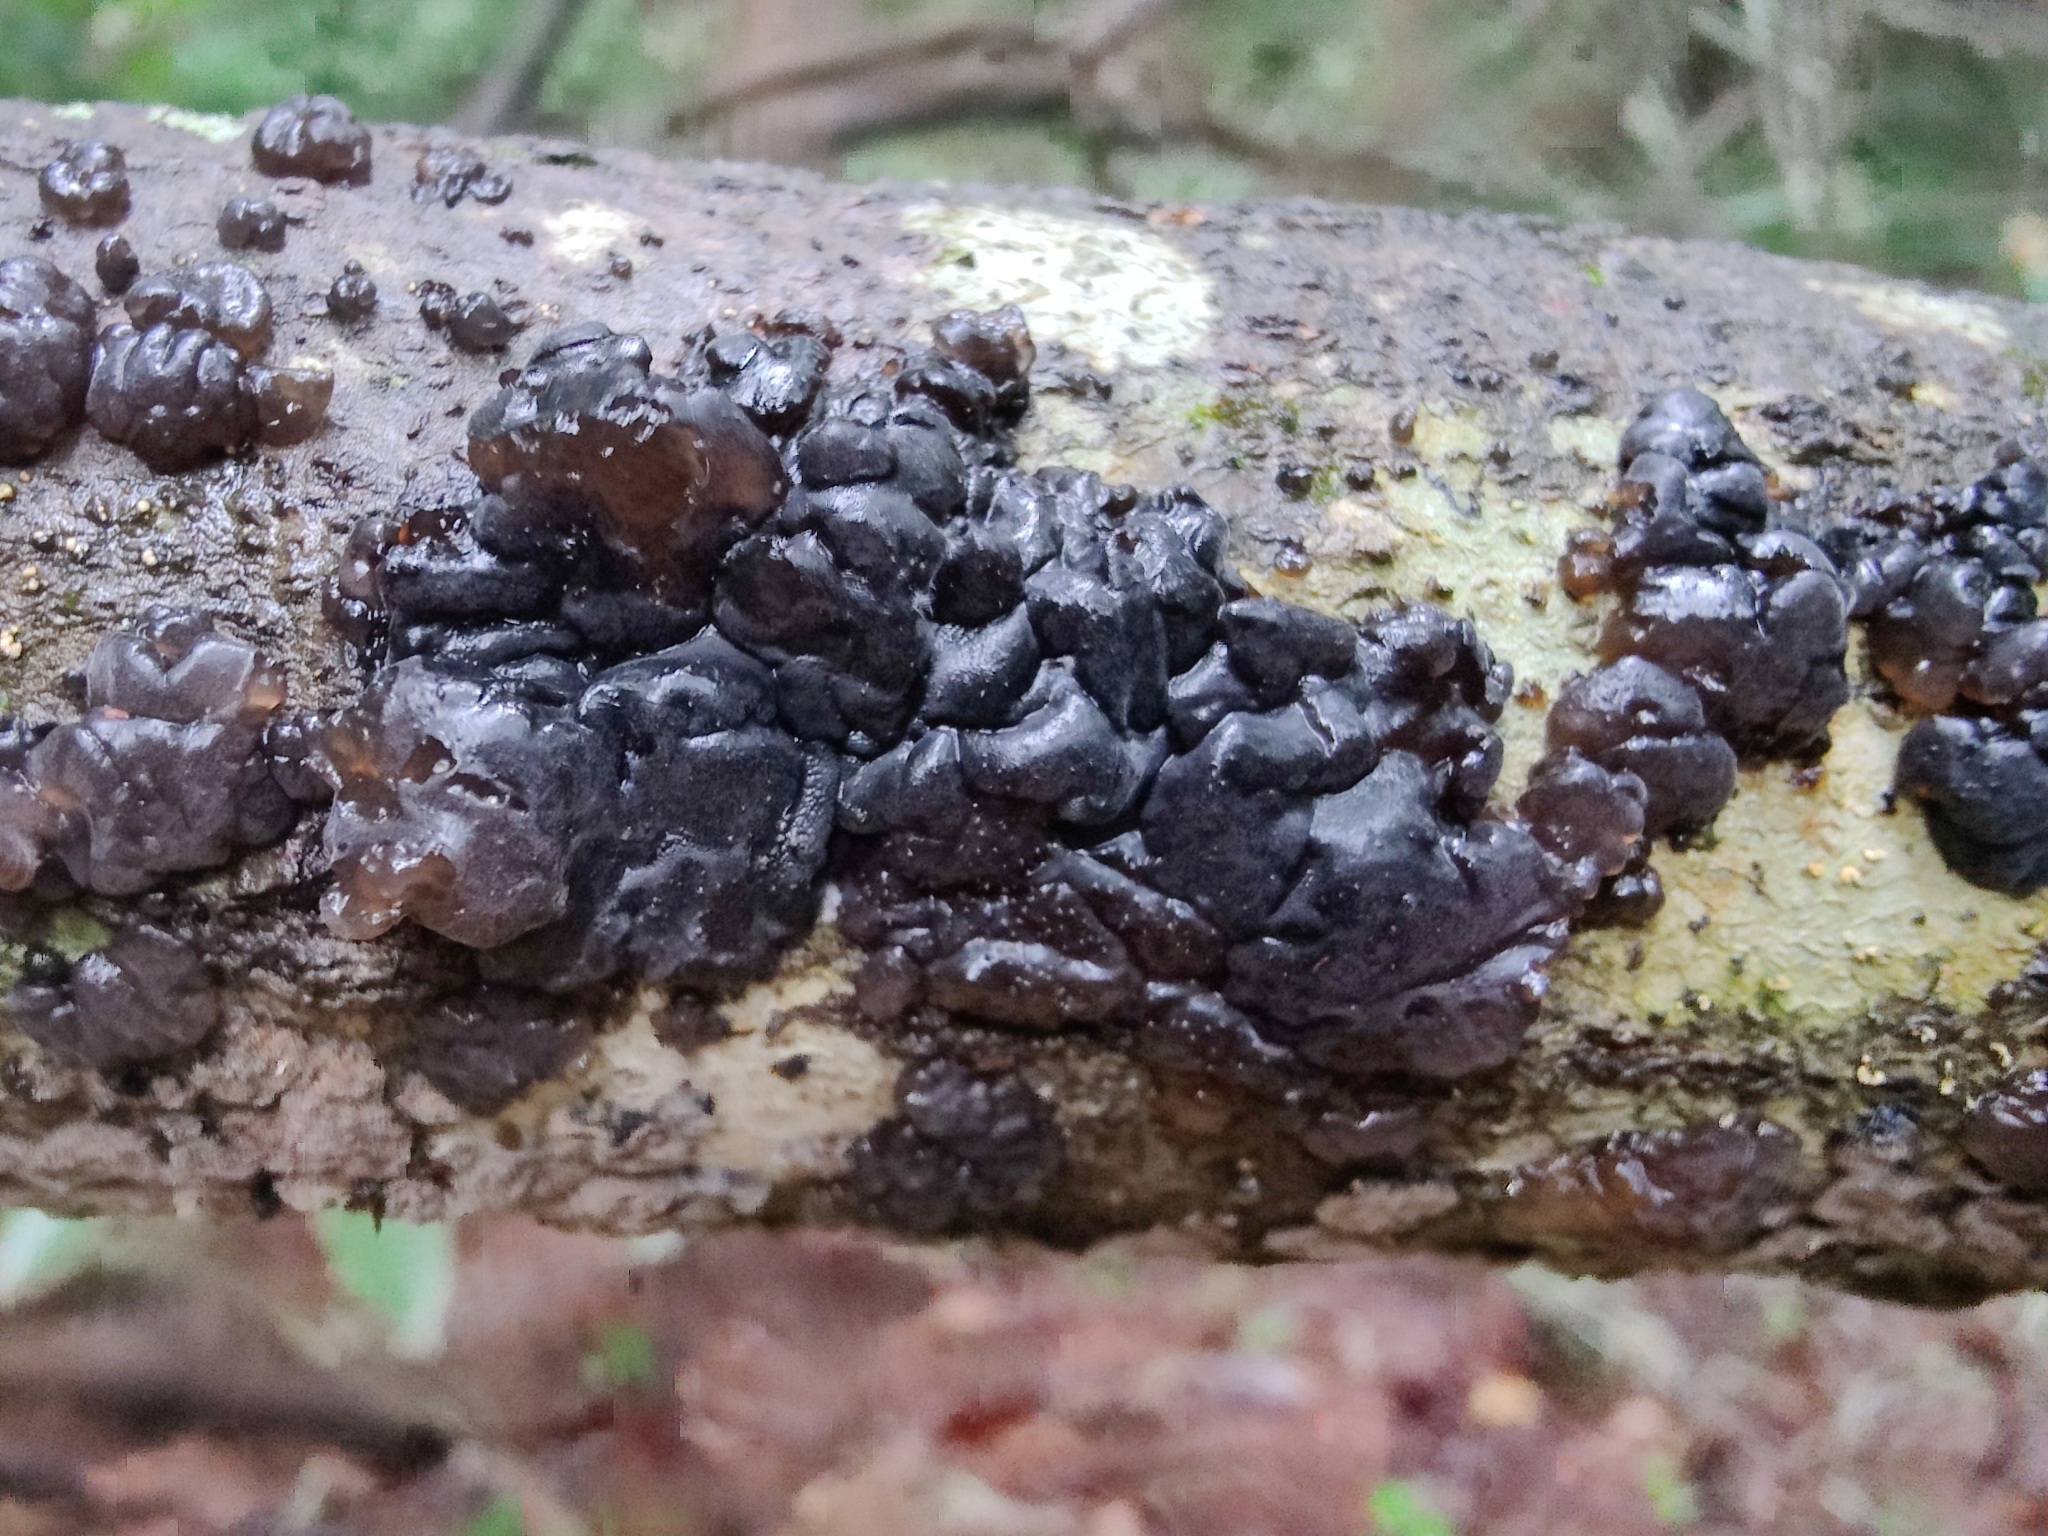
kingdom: Fungi
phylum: Basidiomycota
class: Agaricomycetes
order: Auriculariales
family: Auriculariaceae
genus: Exidia
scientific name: Exidia glandulosa
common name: Witches' butter
